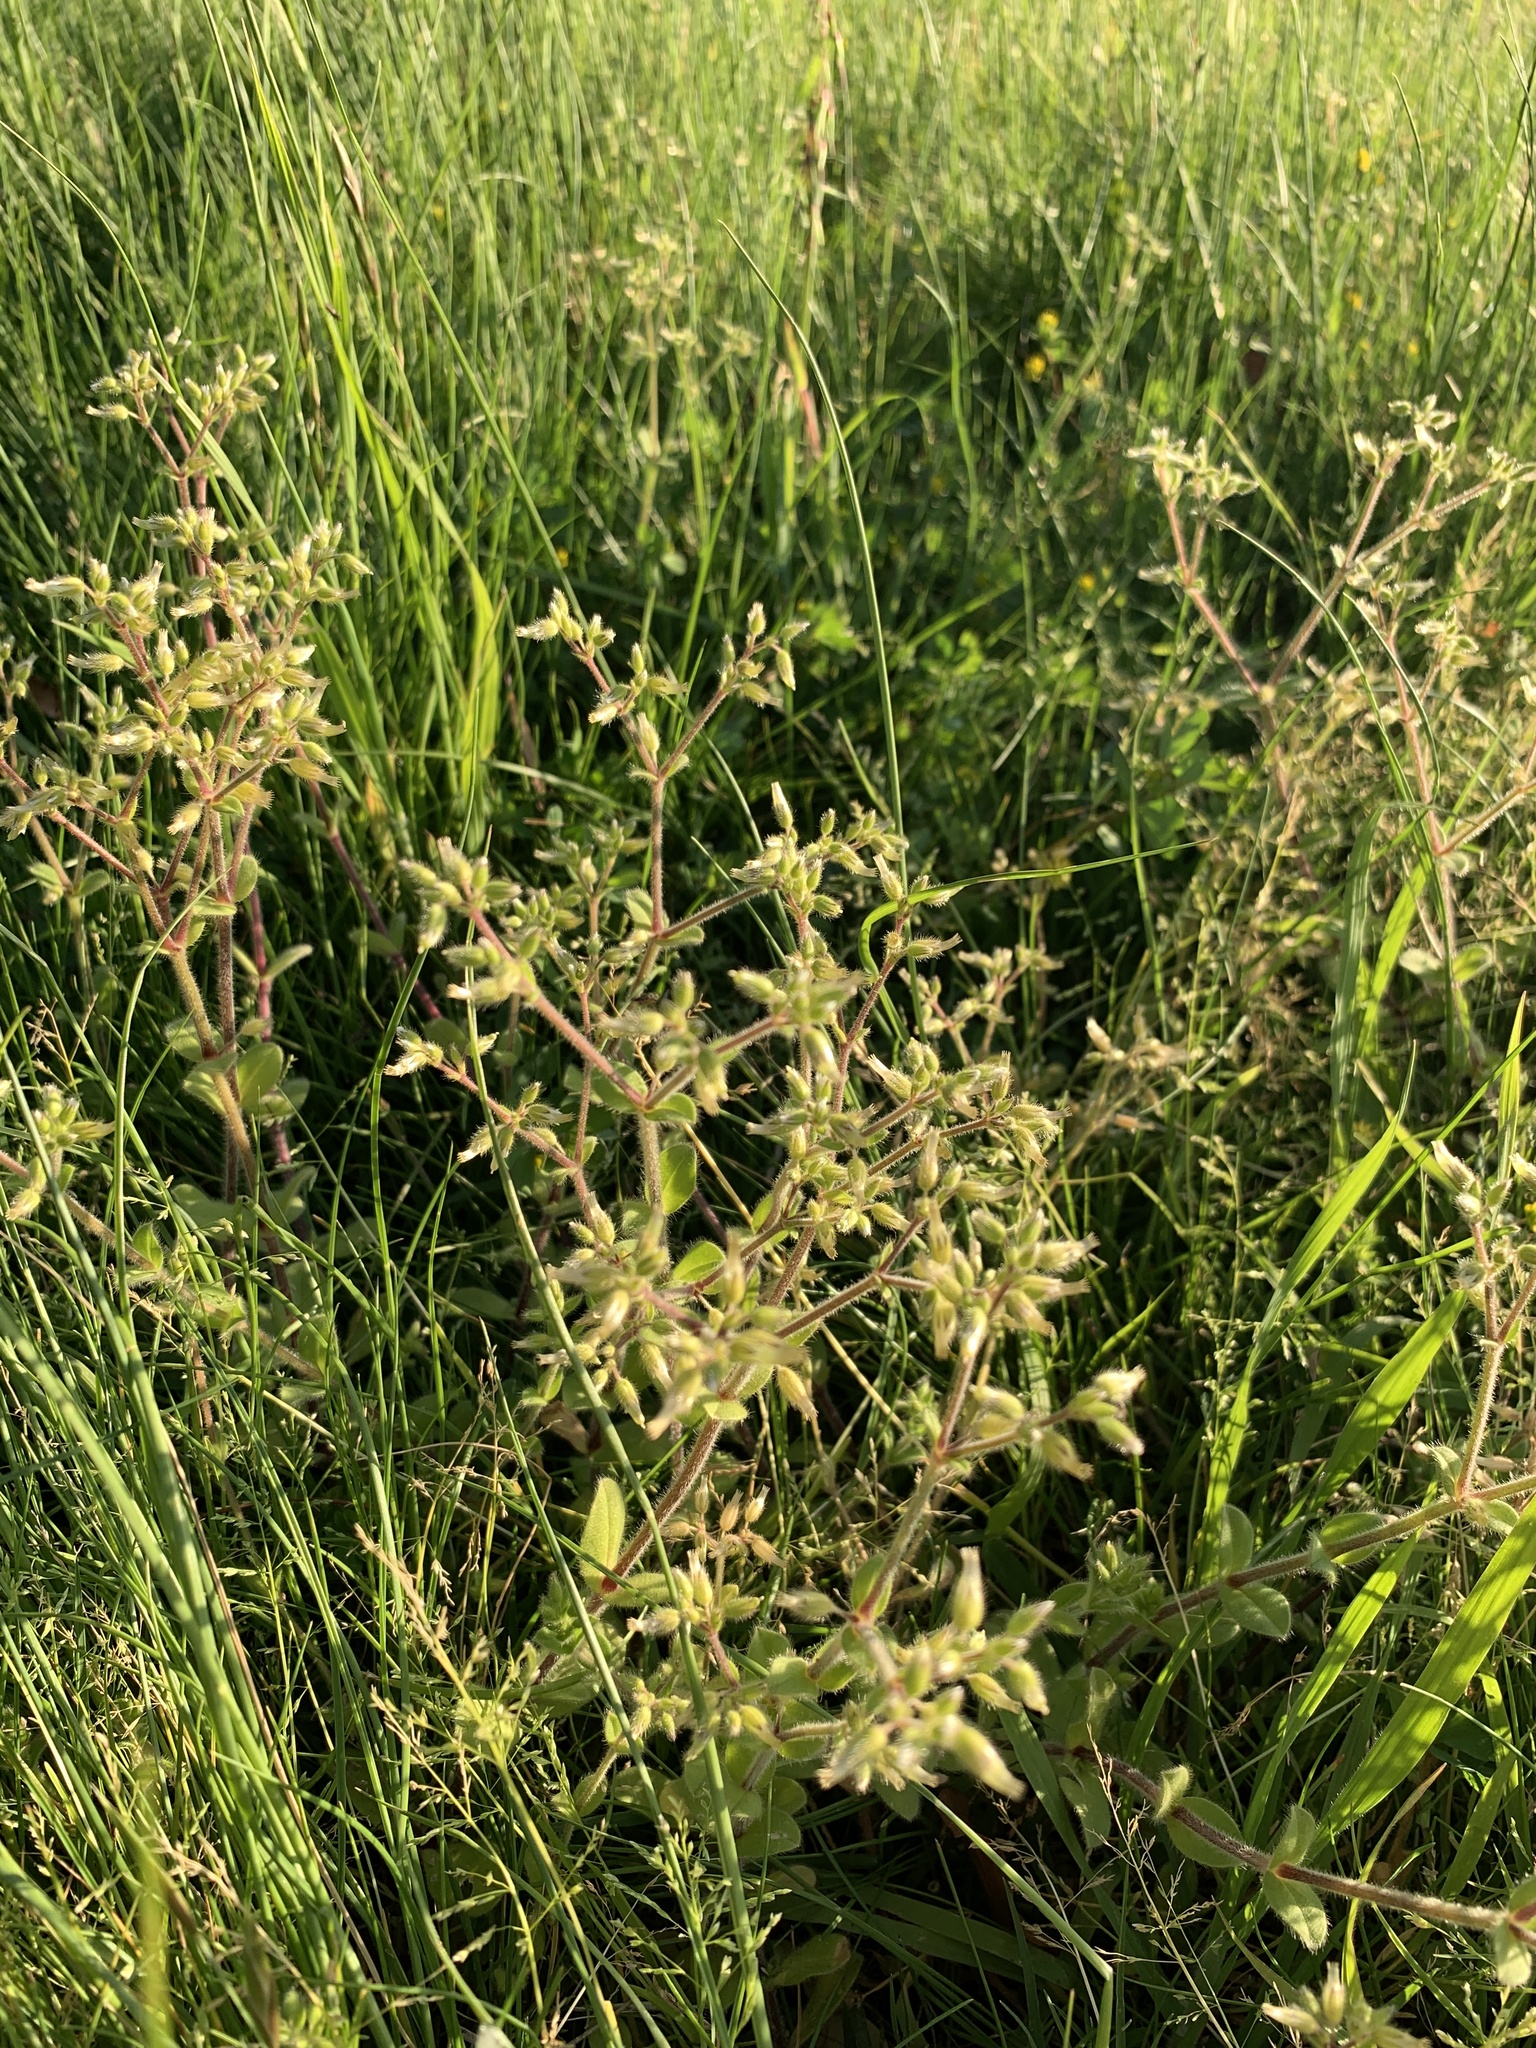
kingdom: Plantae
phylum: Tracheophyta
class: Magnoliopsida
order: Caryophyllales
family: Caryophyllaceae
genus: Cerastium
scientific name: Cerastium glomeratum
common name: Sticky chickweed
